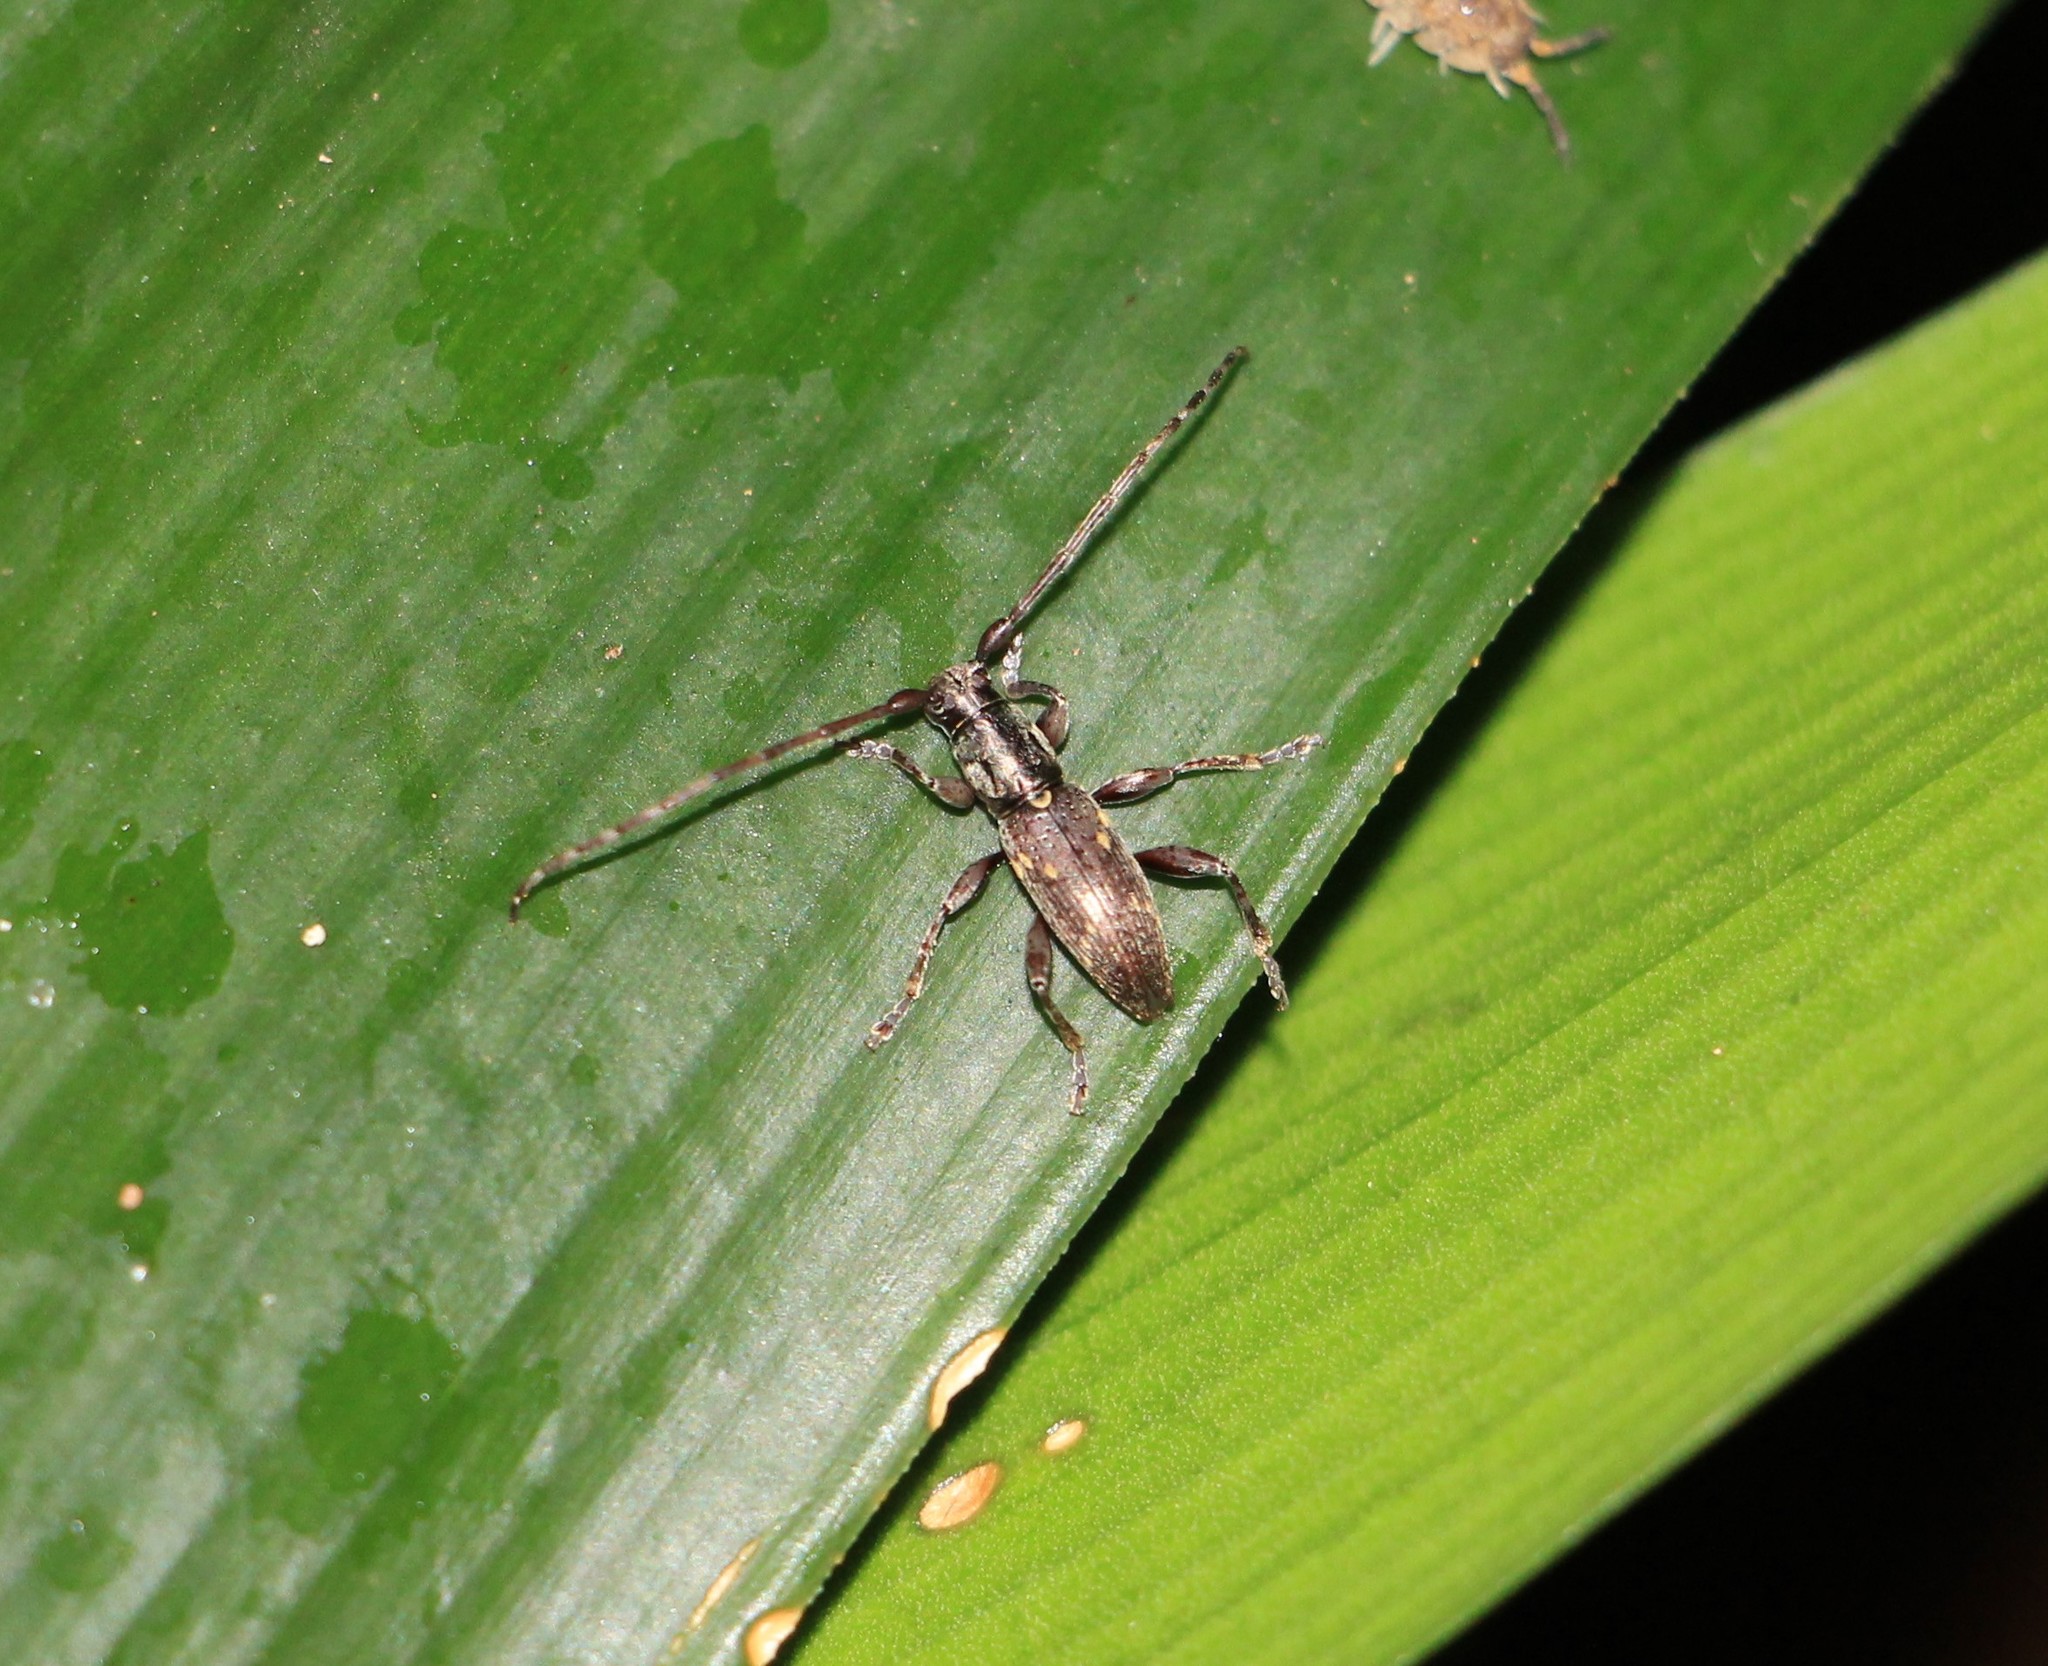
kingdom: Animalia
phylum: Arthropoda
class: Insecta
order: Coleoptera
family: Cerambycidae
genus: Xylotoles
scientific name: Xylotoles griseus
